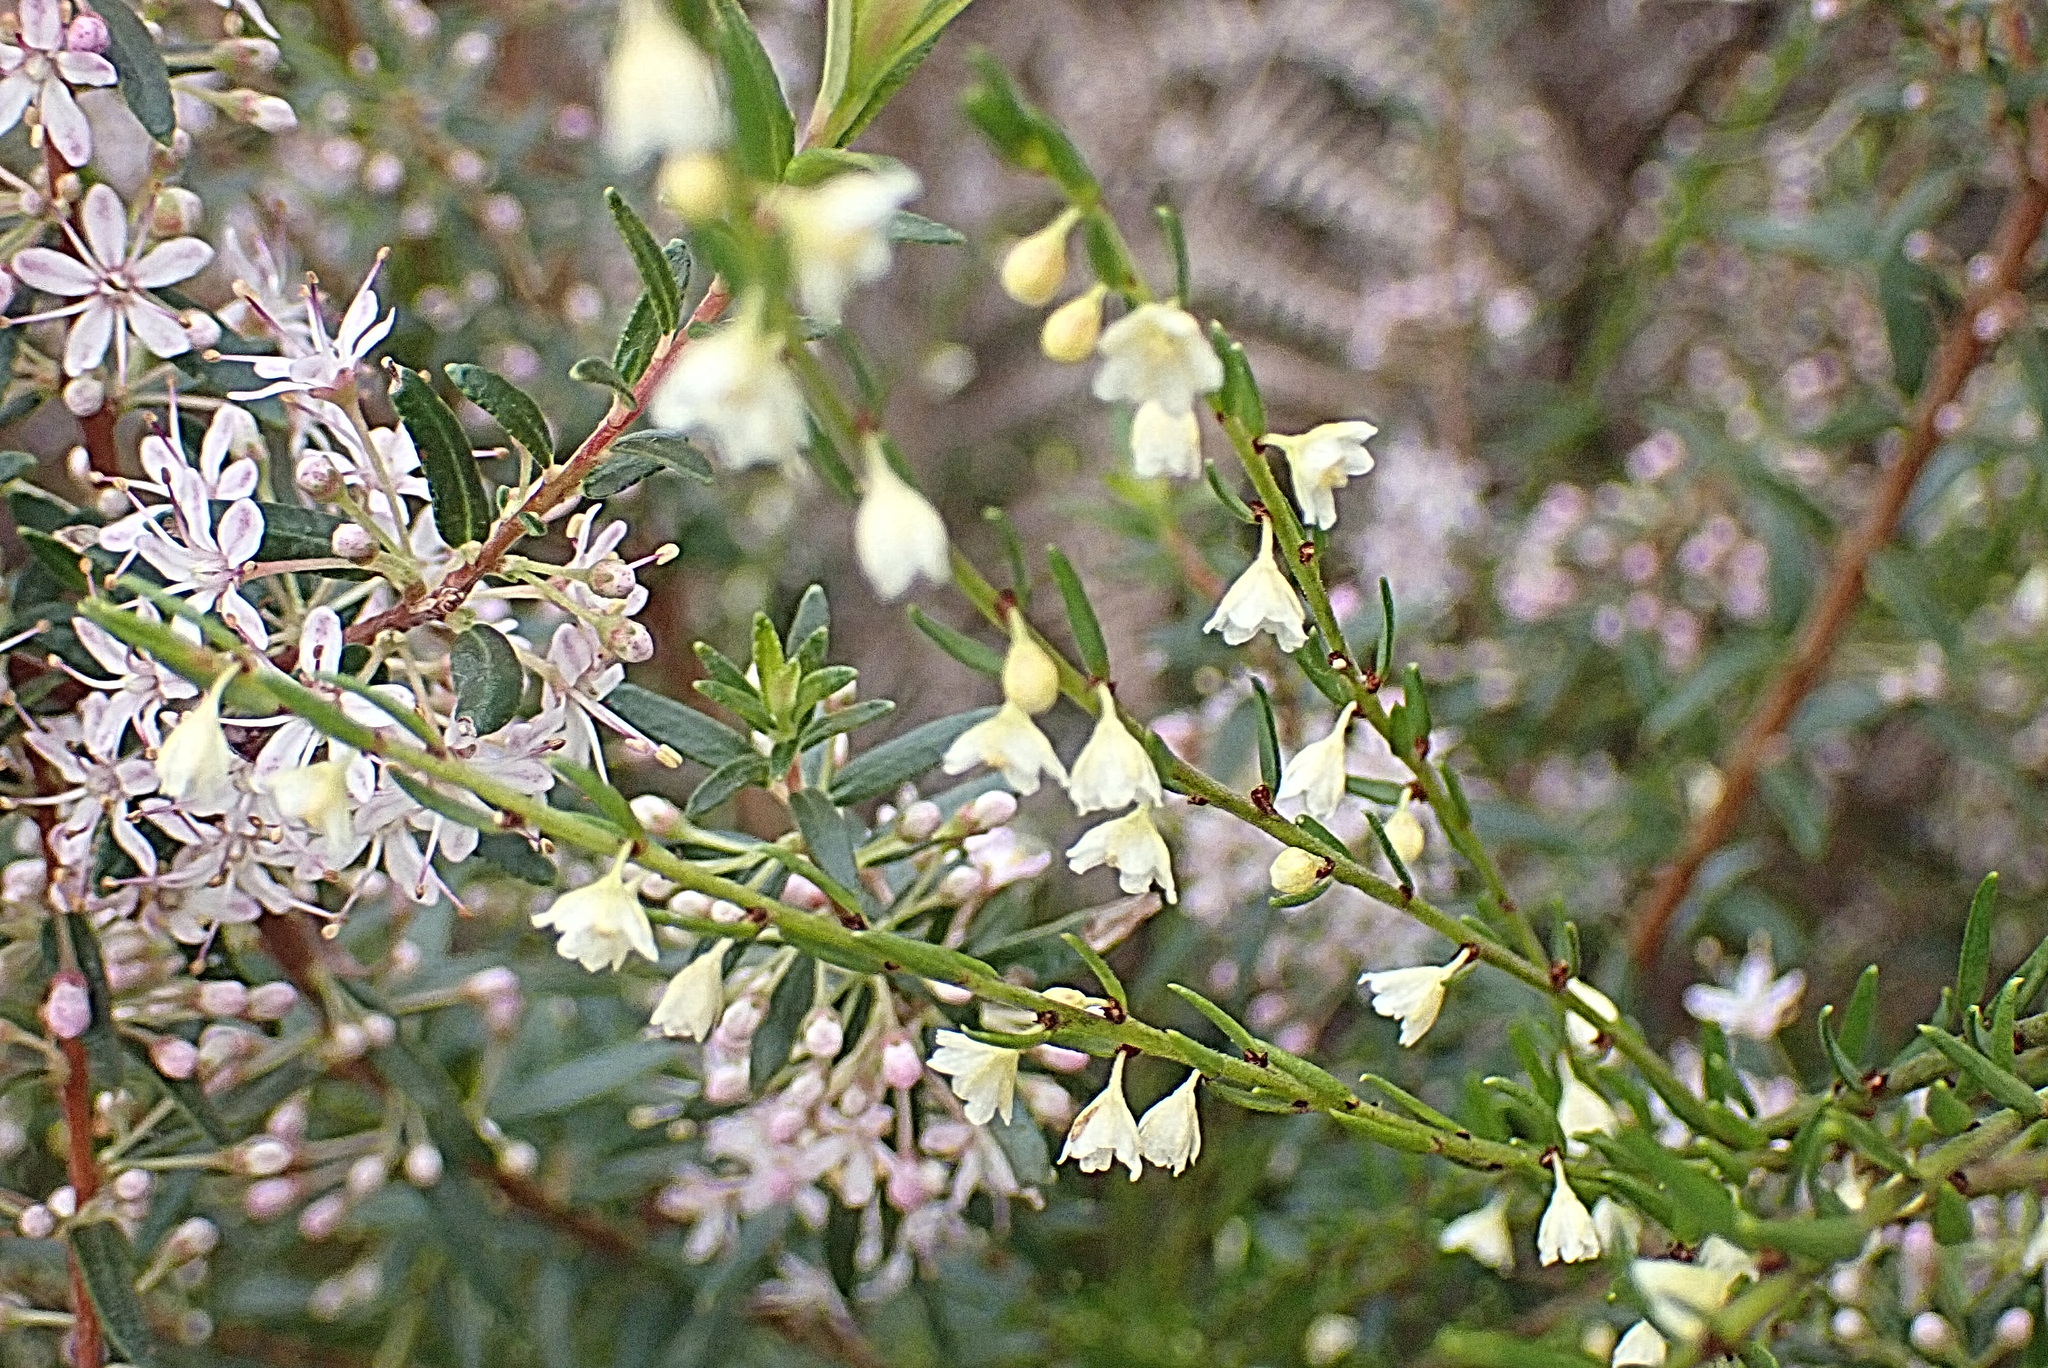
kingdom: Plantae
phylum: Tracheophyta
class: Magnoliopsida
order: Malpighiales
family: Peraceae
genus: Clutia
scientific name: Clutia ericoides
